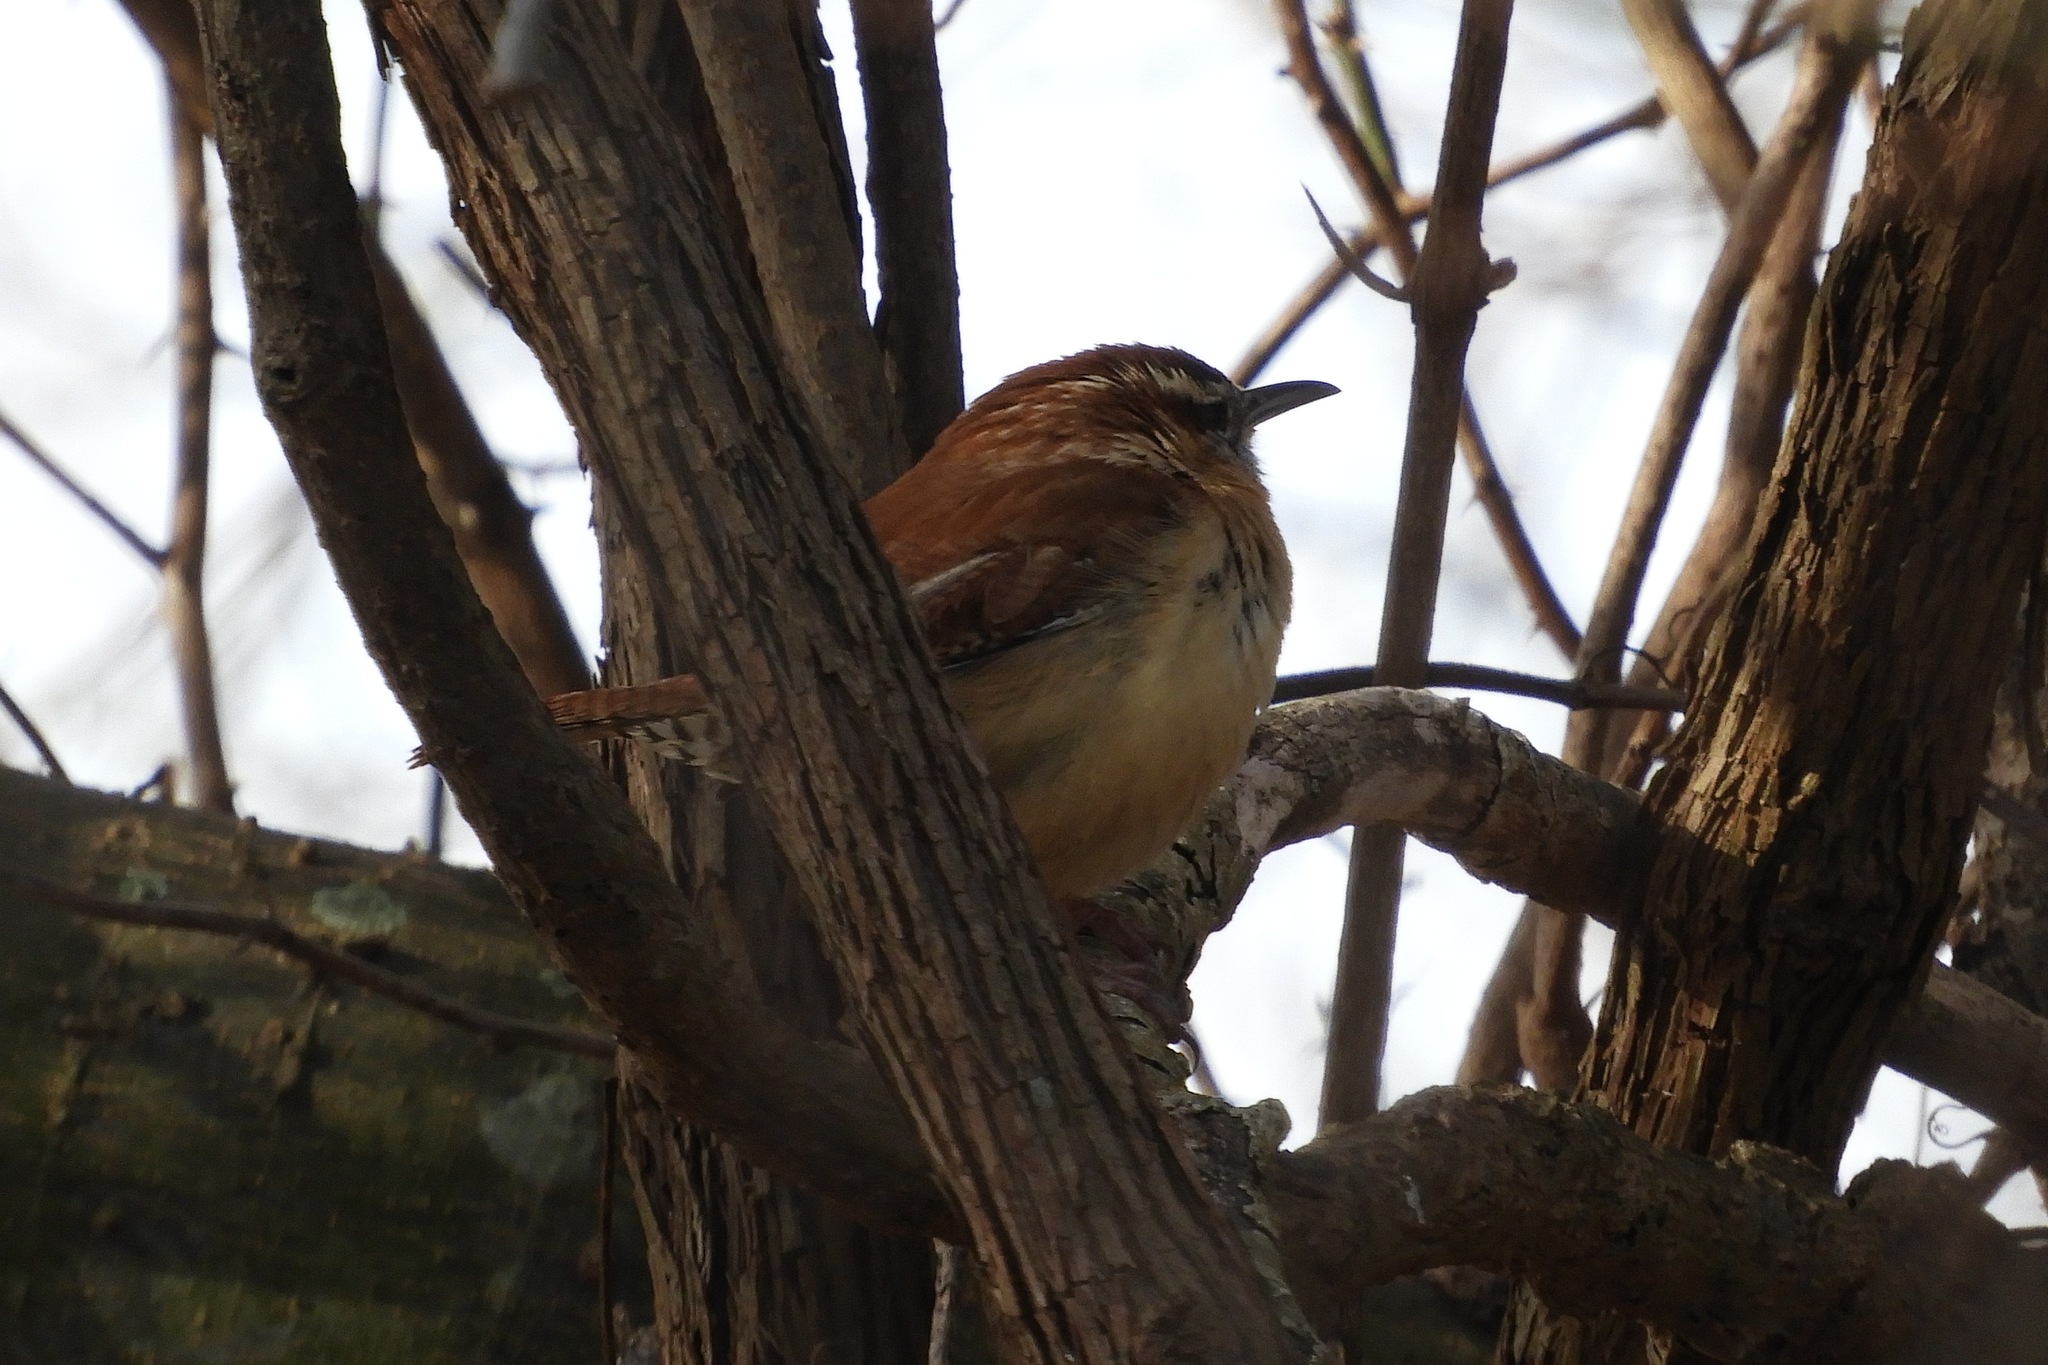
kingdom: Animalia
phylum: Chordata
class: Aves
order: Passeriformes
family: Troglodytidae
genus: Thryothorus
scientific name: Thryothorus ludovicianus
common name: Carolina wren
